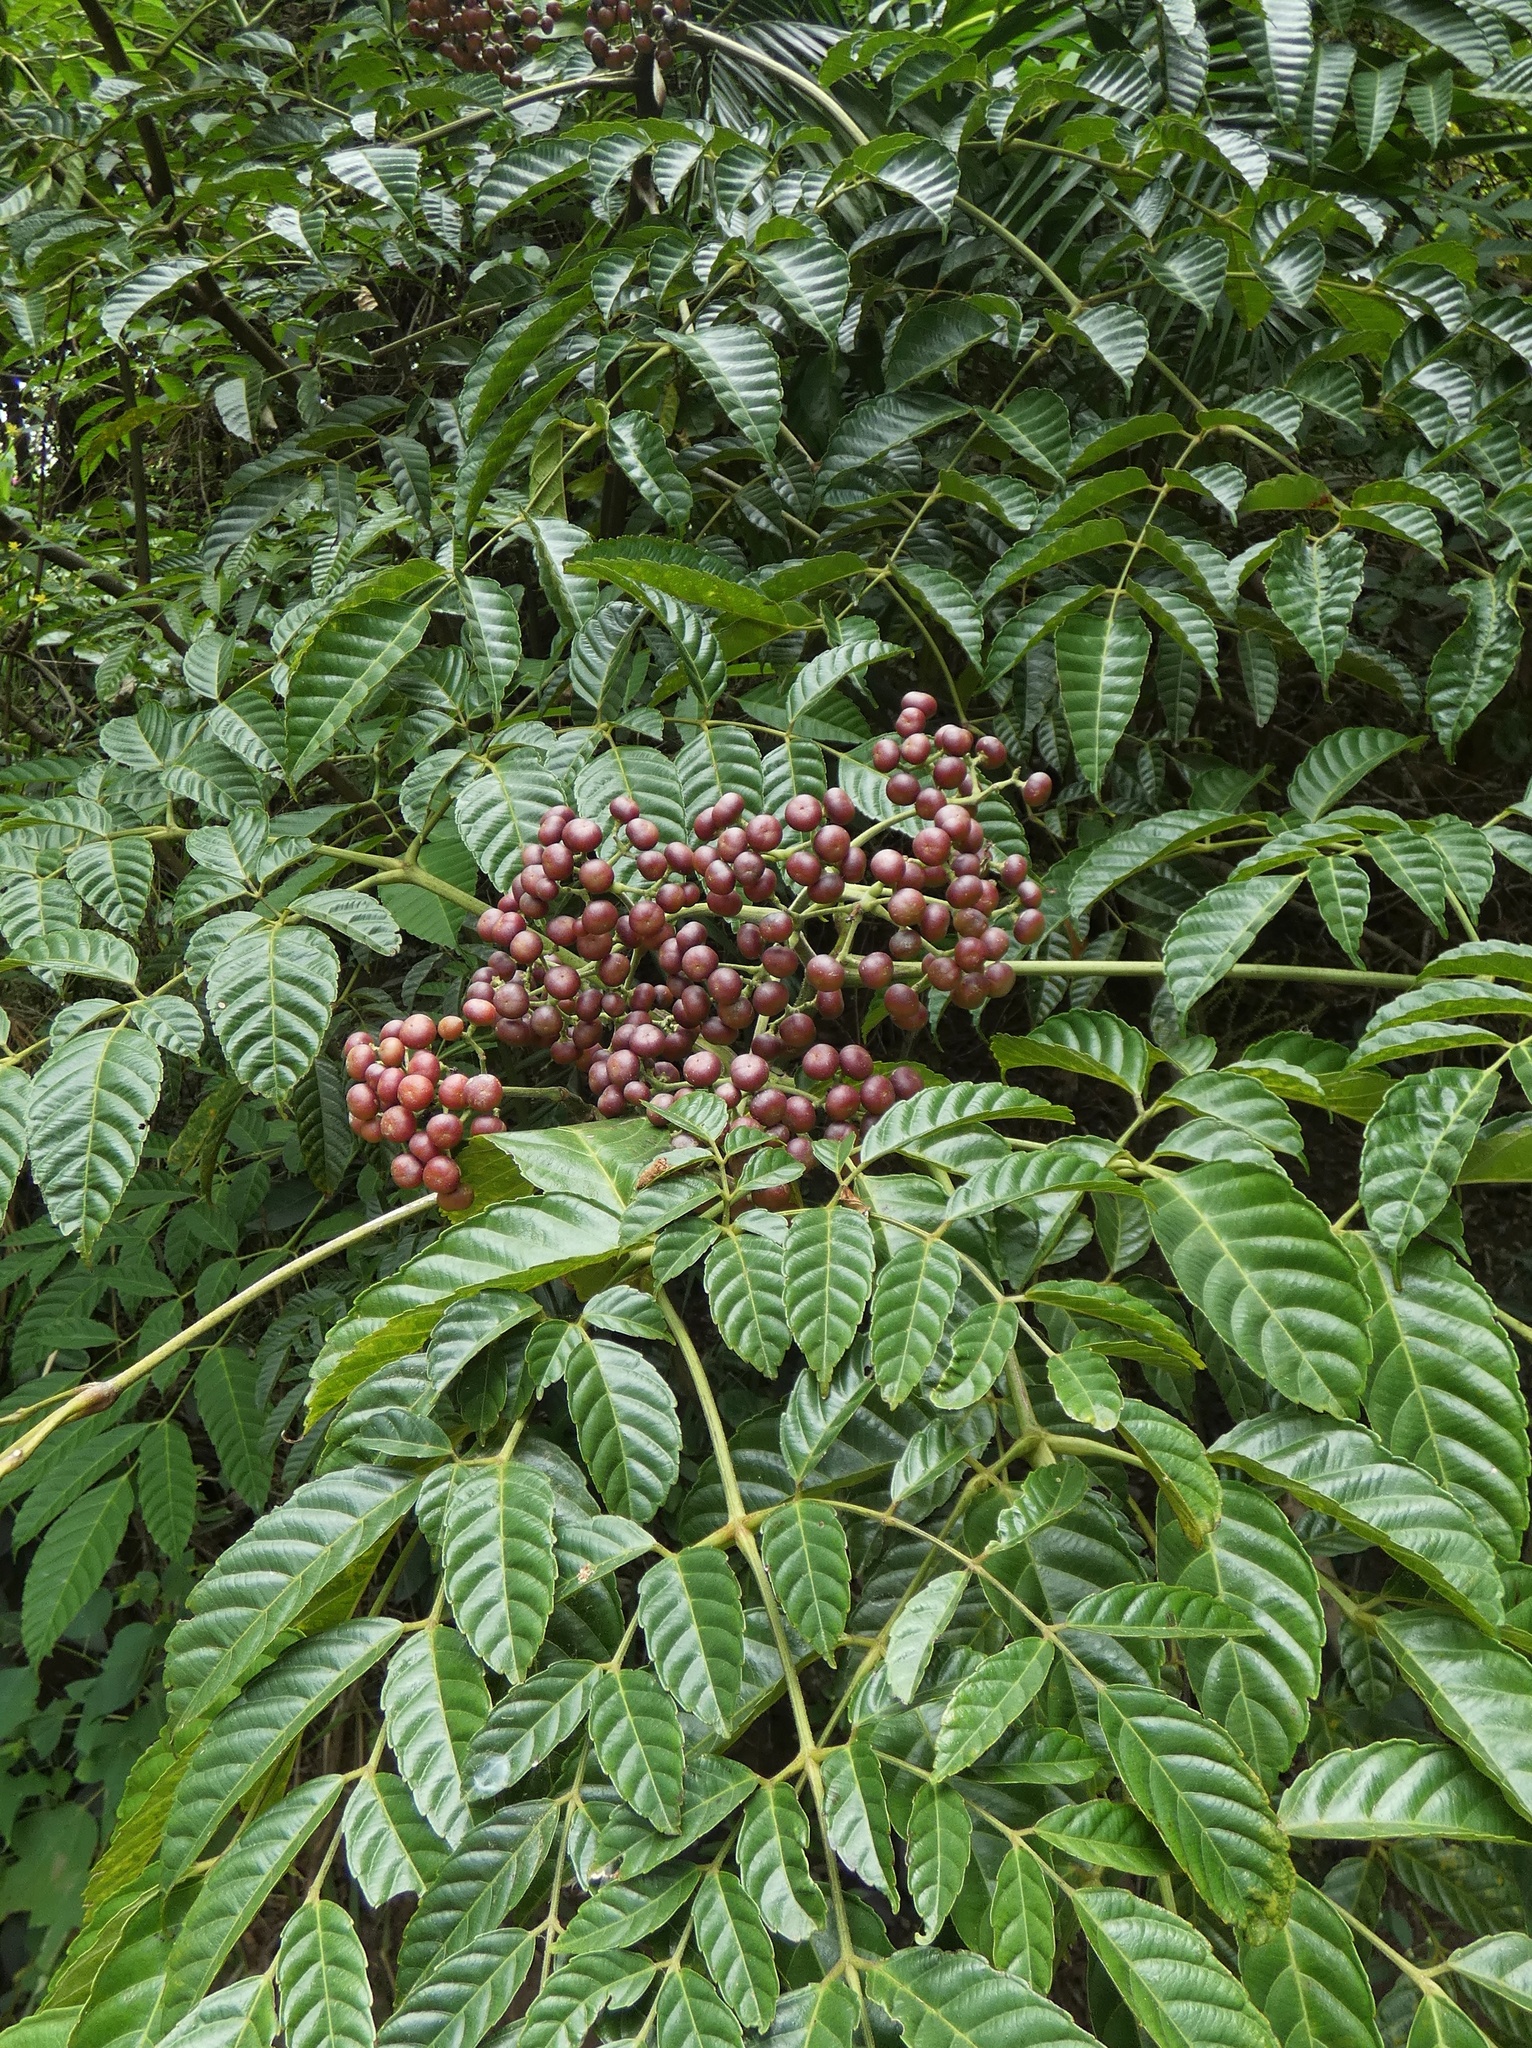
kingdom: Plantae
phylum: Tracheophyta
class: Magnoliopsida
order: Vitales
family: Vitaceae
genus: Leea
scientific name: Leea nova-guineensis
